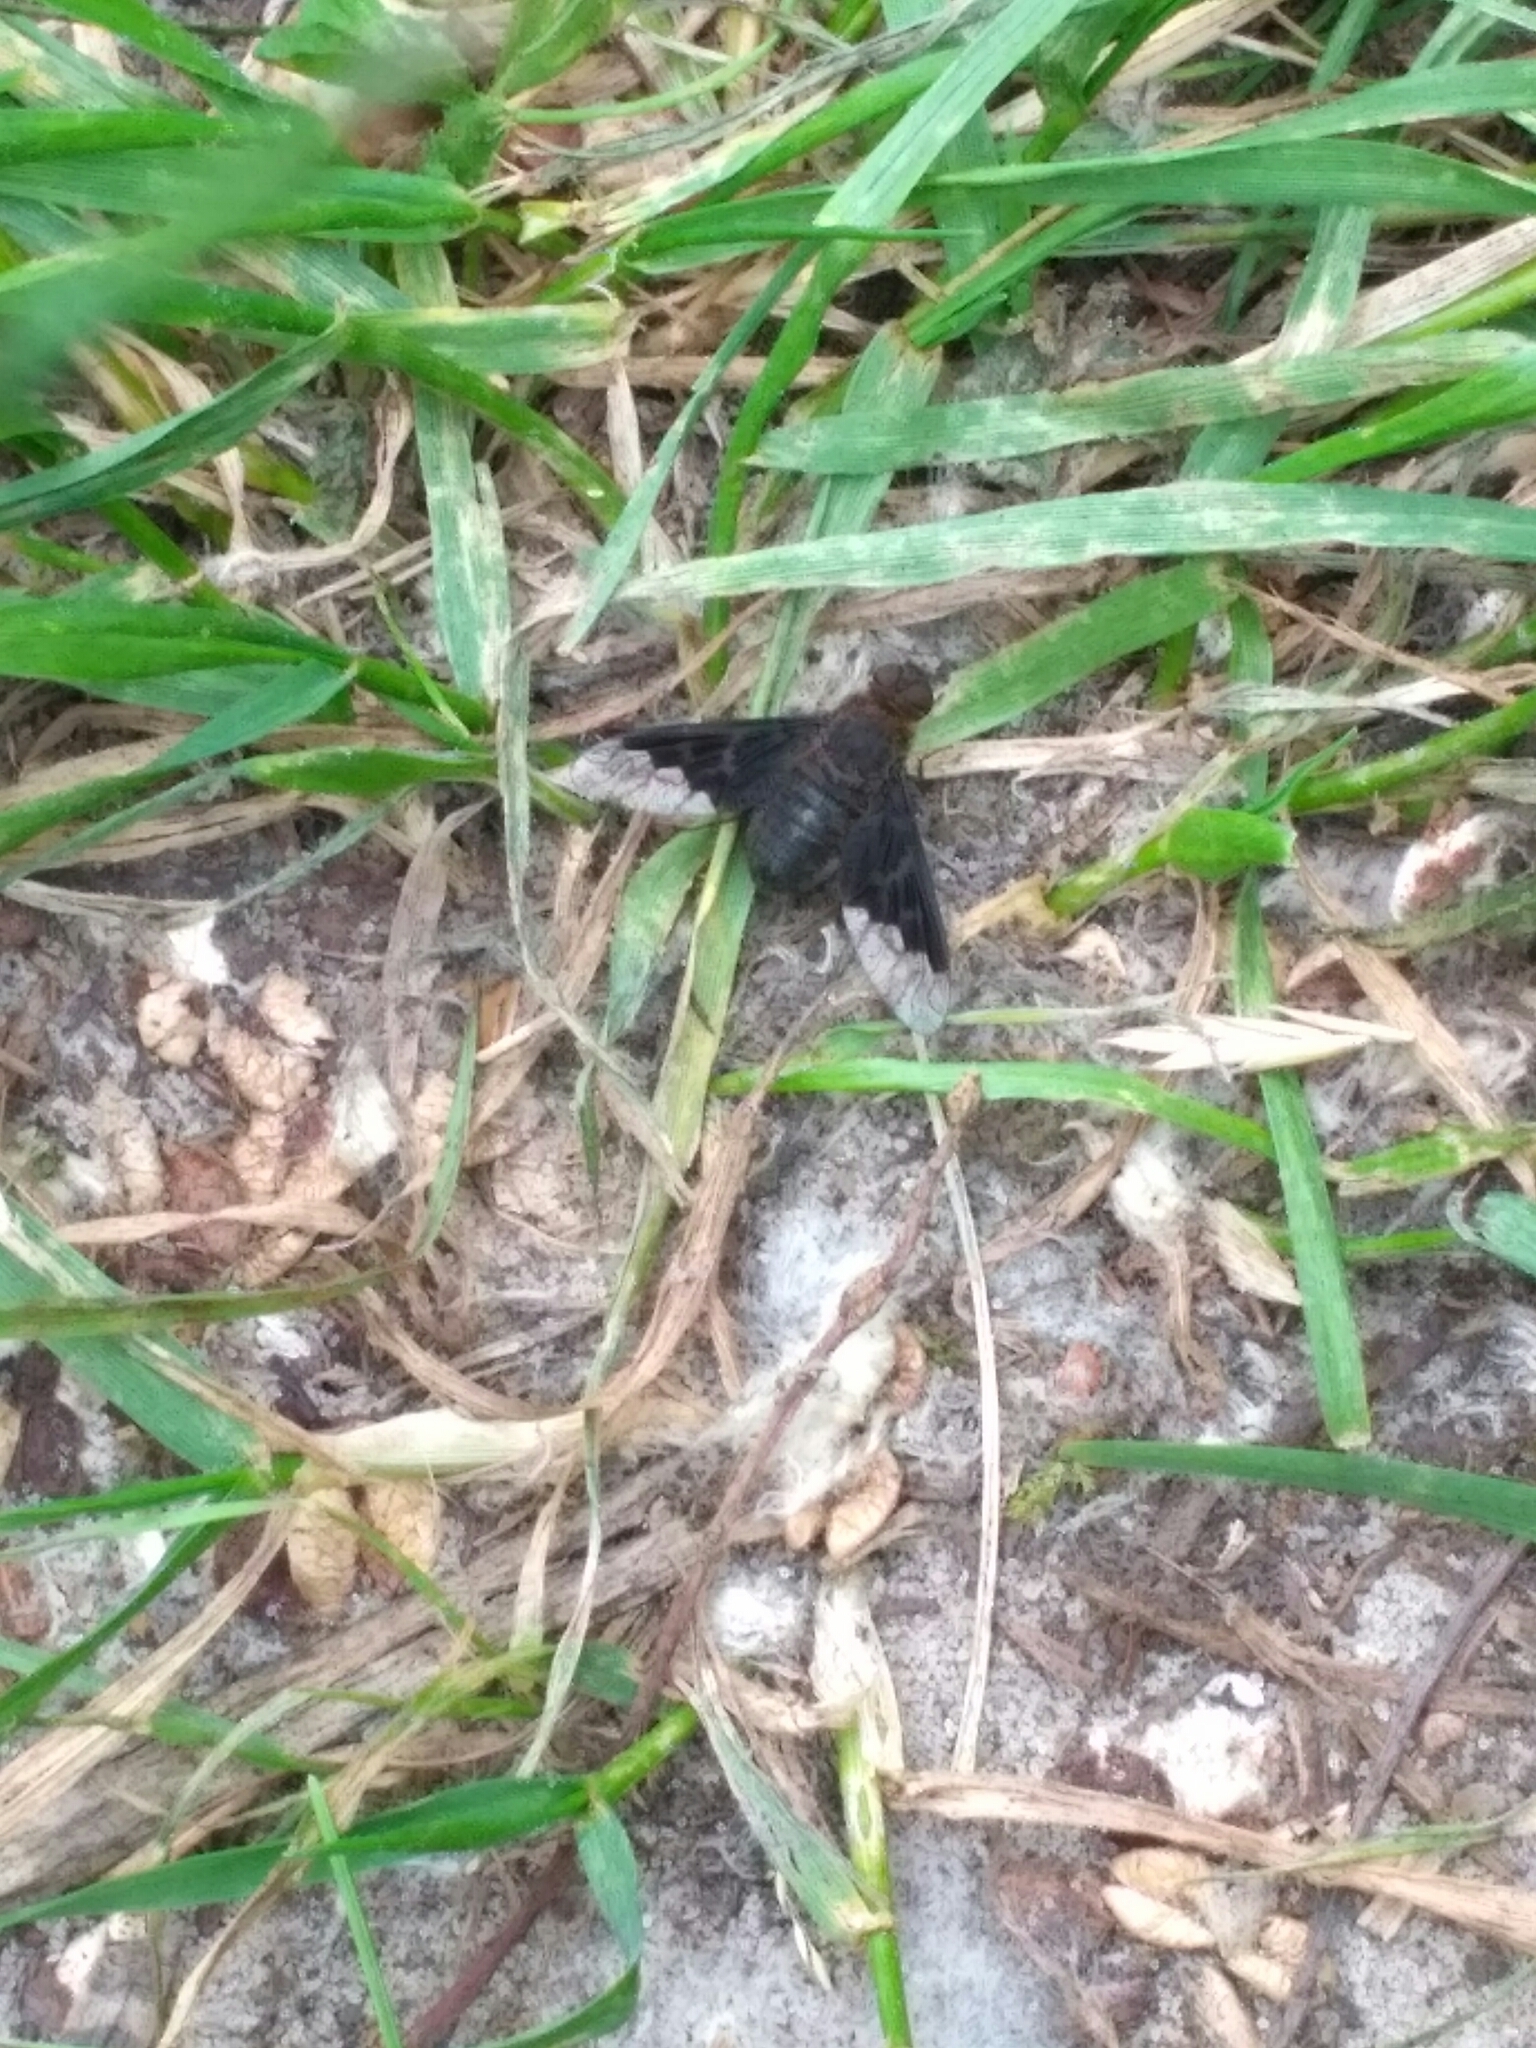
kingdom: Animalia
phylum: Arthropoda
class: Insecta
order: Diptera
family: Bombyliidae
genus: Hemipenthes
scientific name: Hemipenthes morio
